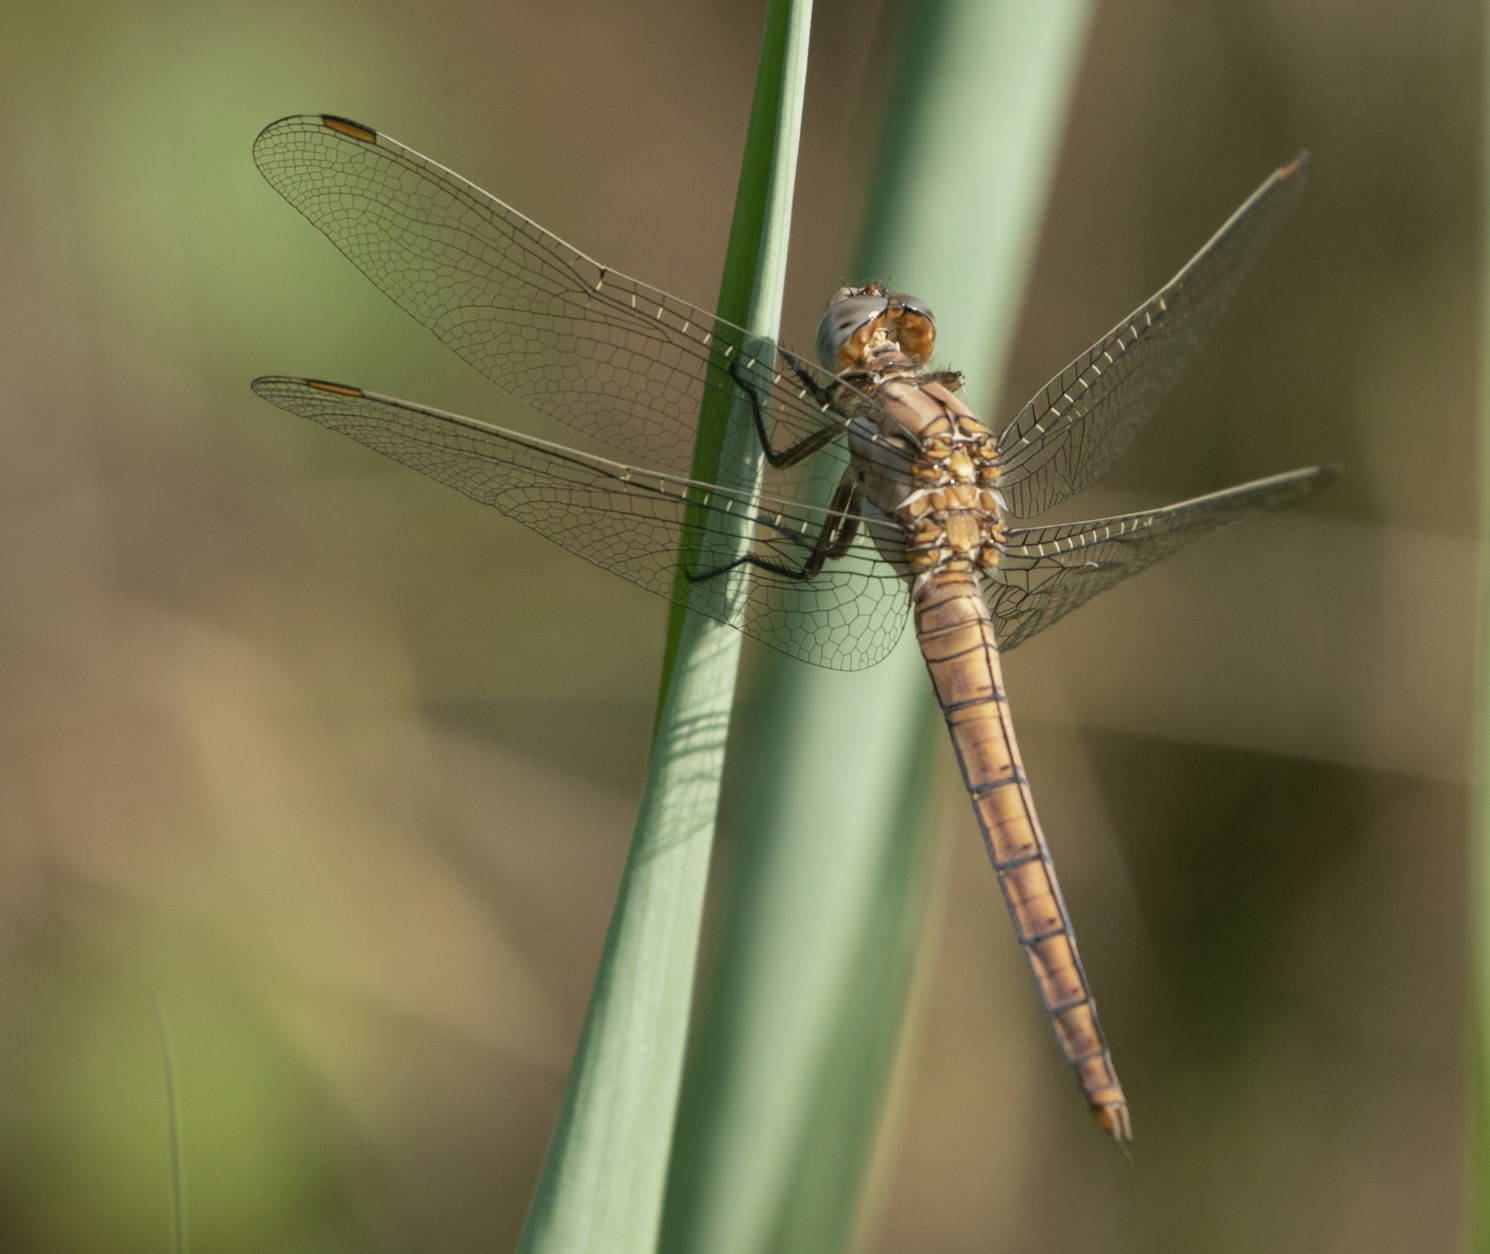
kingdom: Animalia
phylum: Arthropoda
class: Insecta
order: Odonata
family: Libellulidae
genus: Orthetrum
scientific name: Orthetrum brunneum
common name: Southern skimmer
